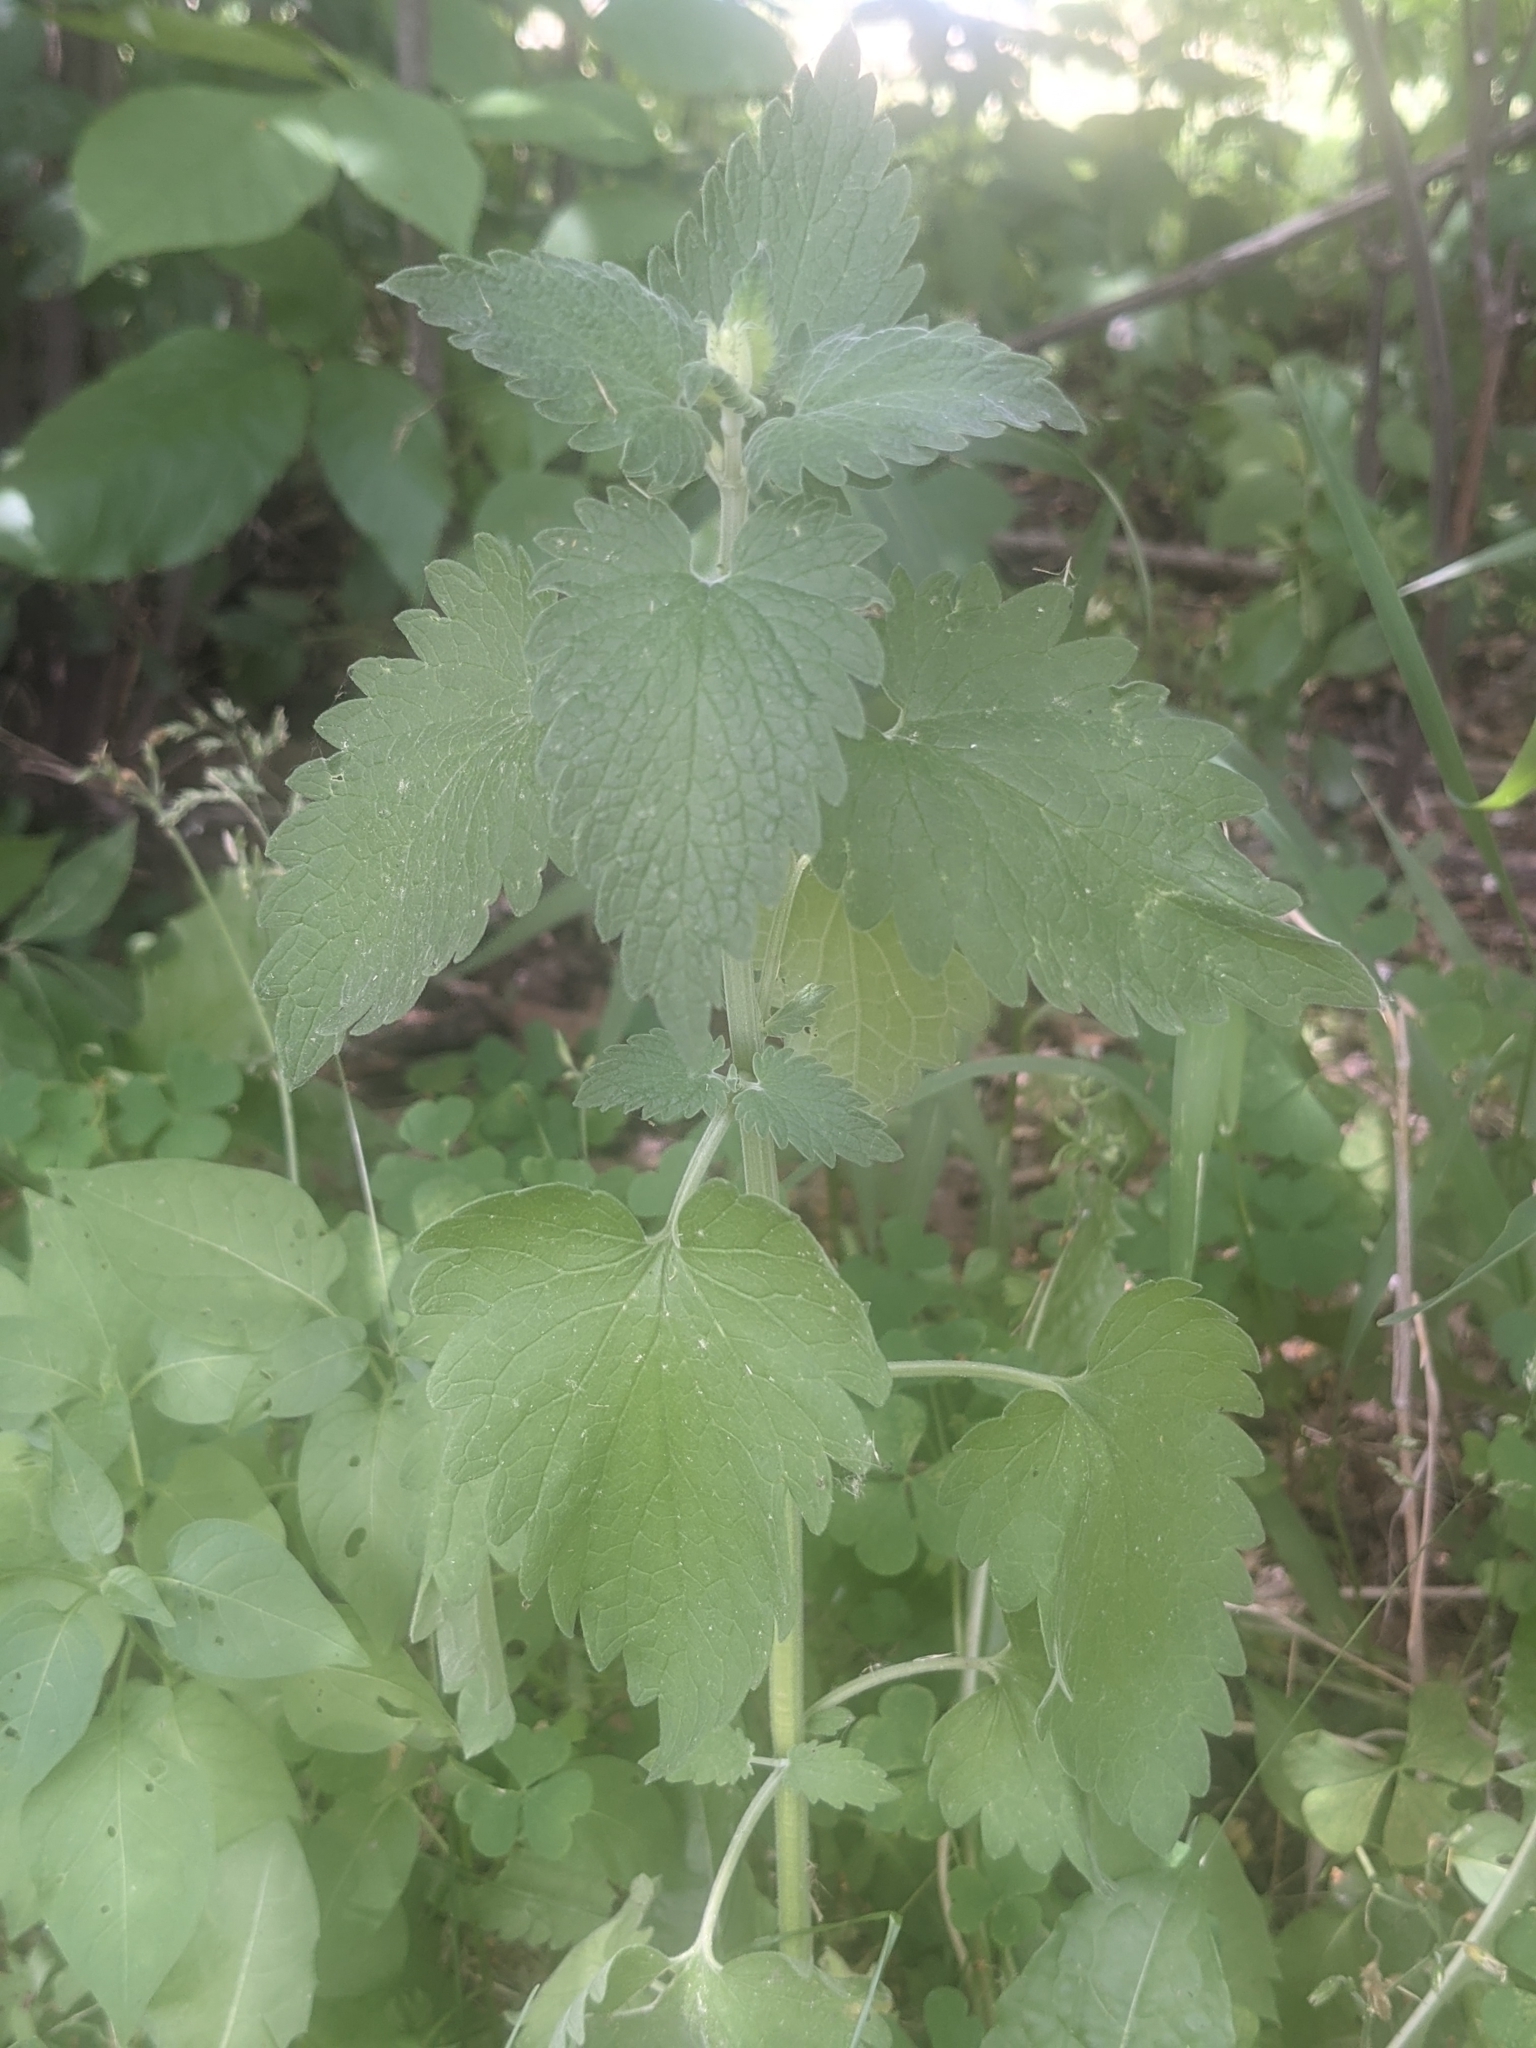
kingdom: Plantae
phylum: Tracheophyta
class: Magnoliopsida
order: Lamiales
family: Lamiaceae
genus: Nepeta
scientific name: Nepeta cataria
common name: Catnip
